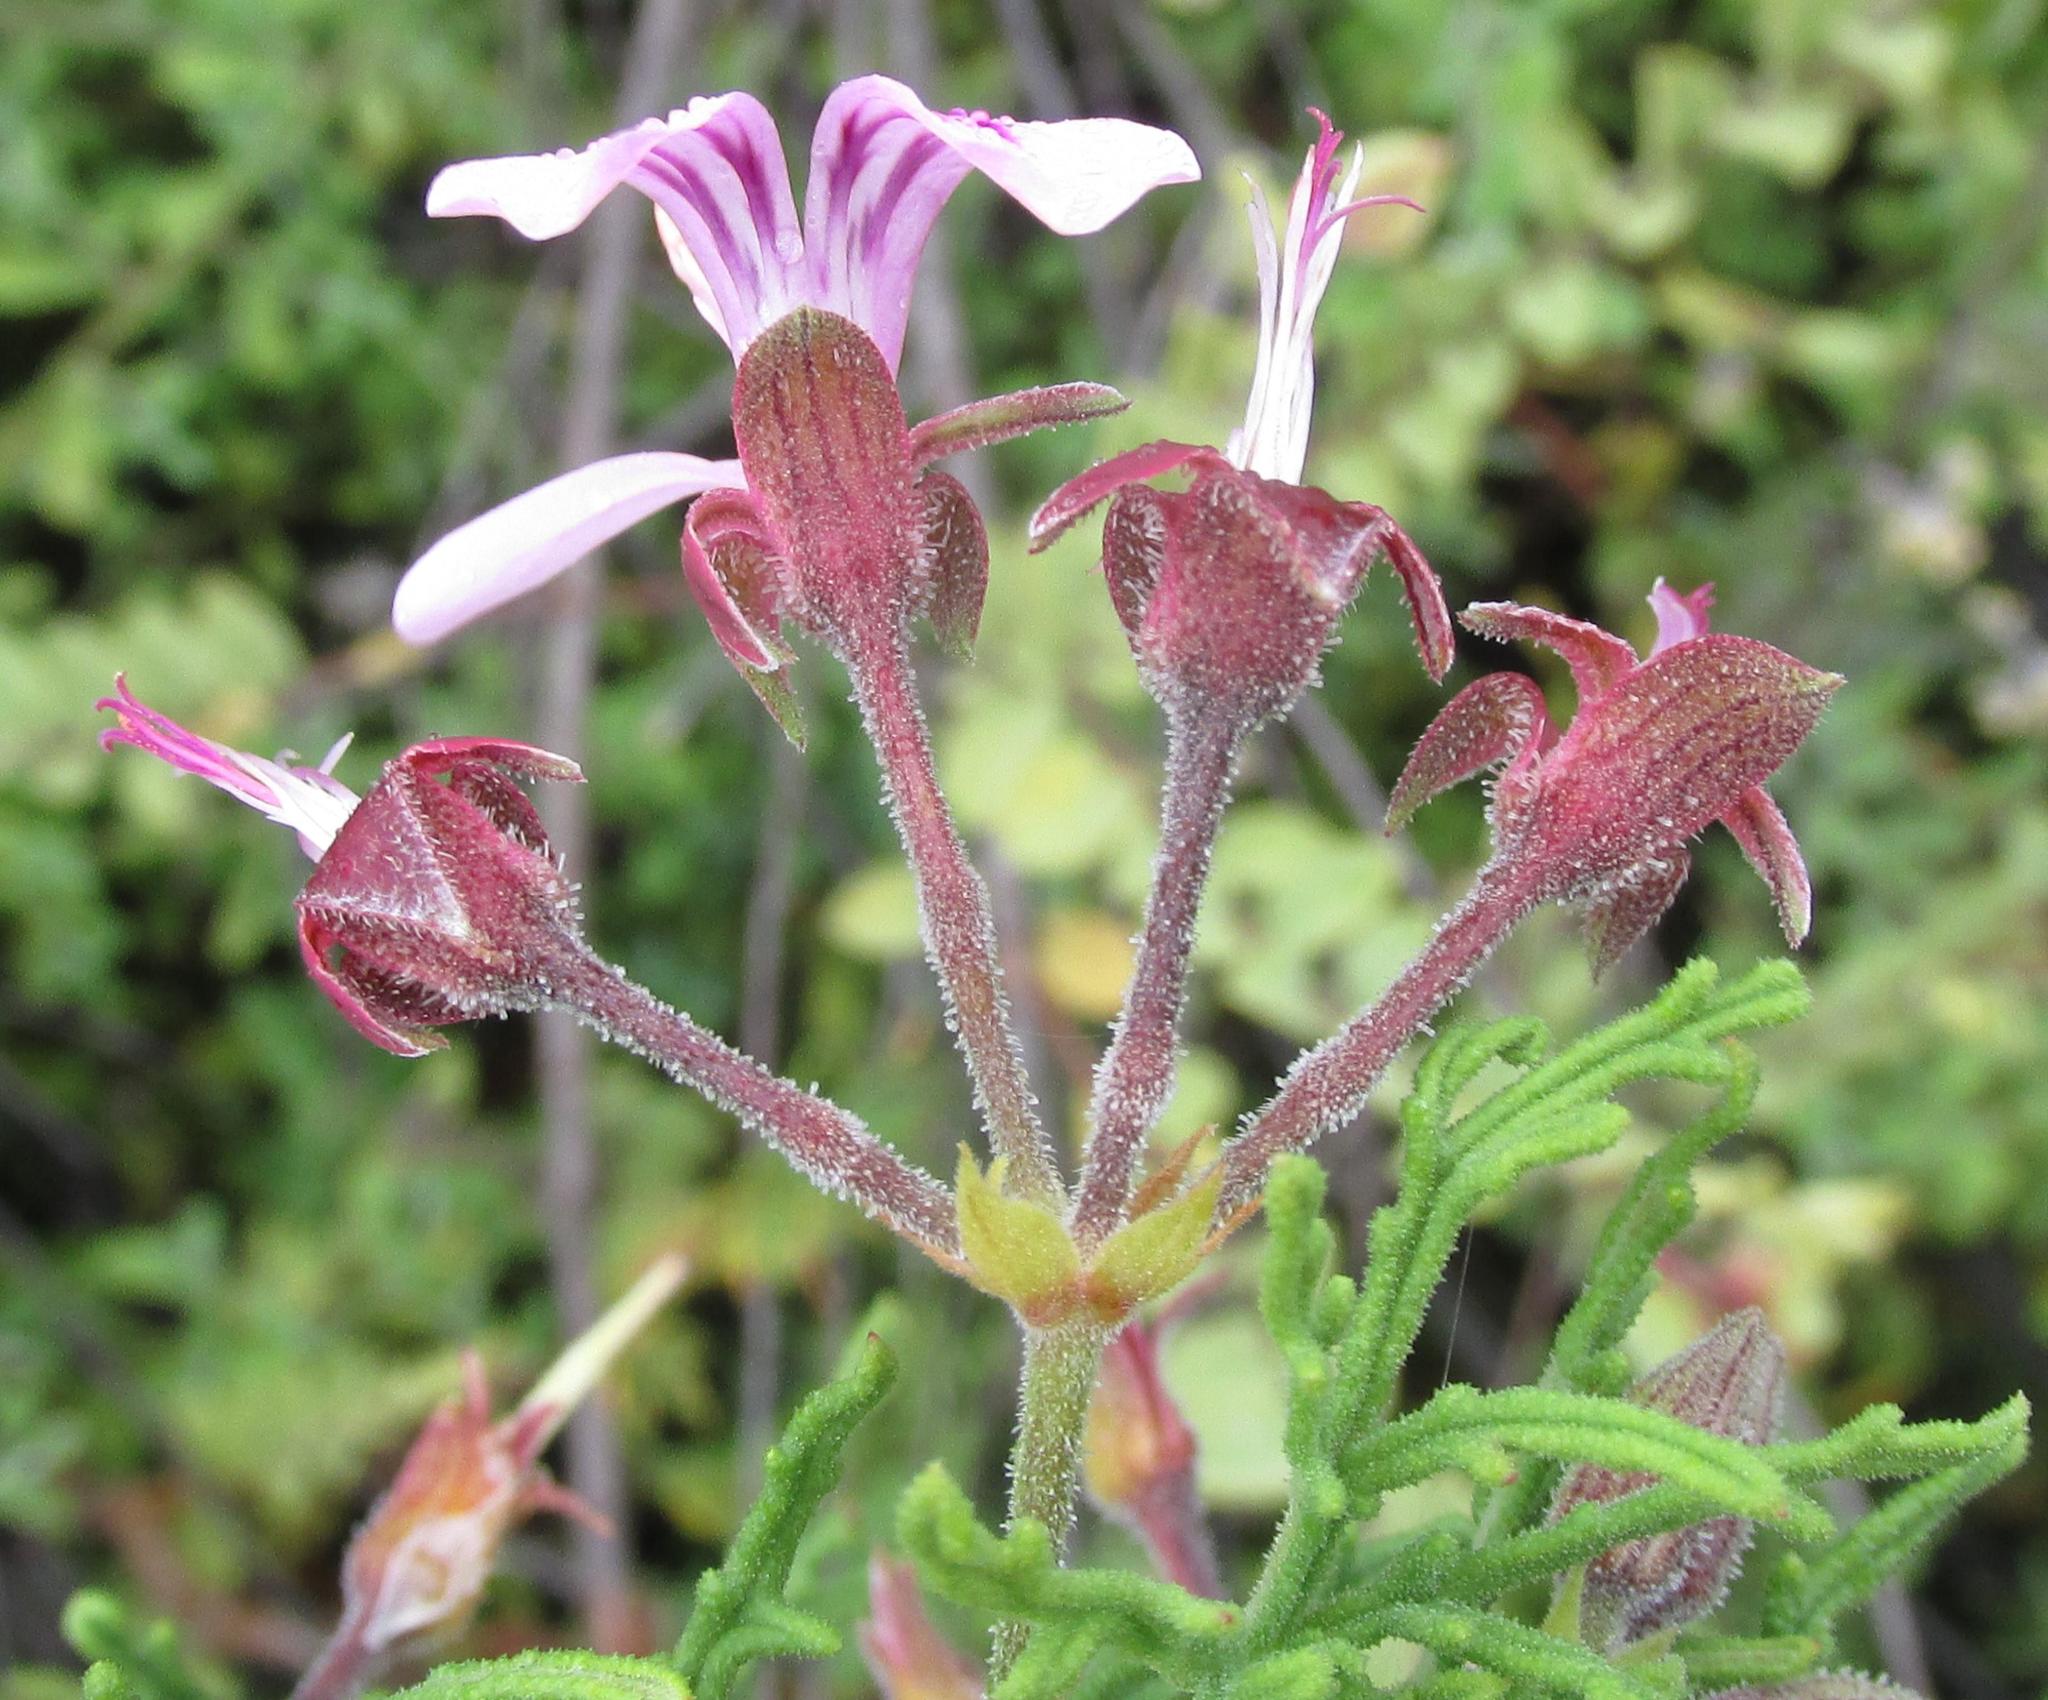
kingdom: Plantae
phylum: Tracheophyta
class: Magnoliopsida
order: Geraniales
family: Geraniaceae
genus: Pelargonium
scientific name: Pelargonium radens
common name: Rasp-leaf pelargonium
